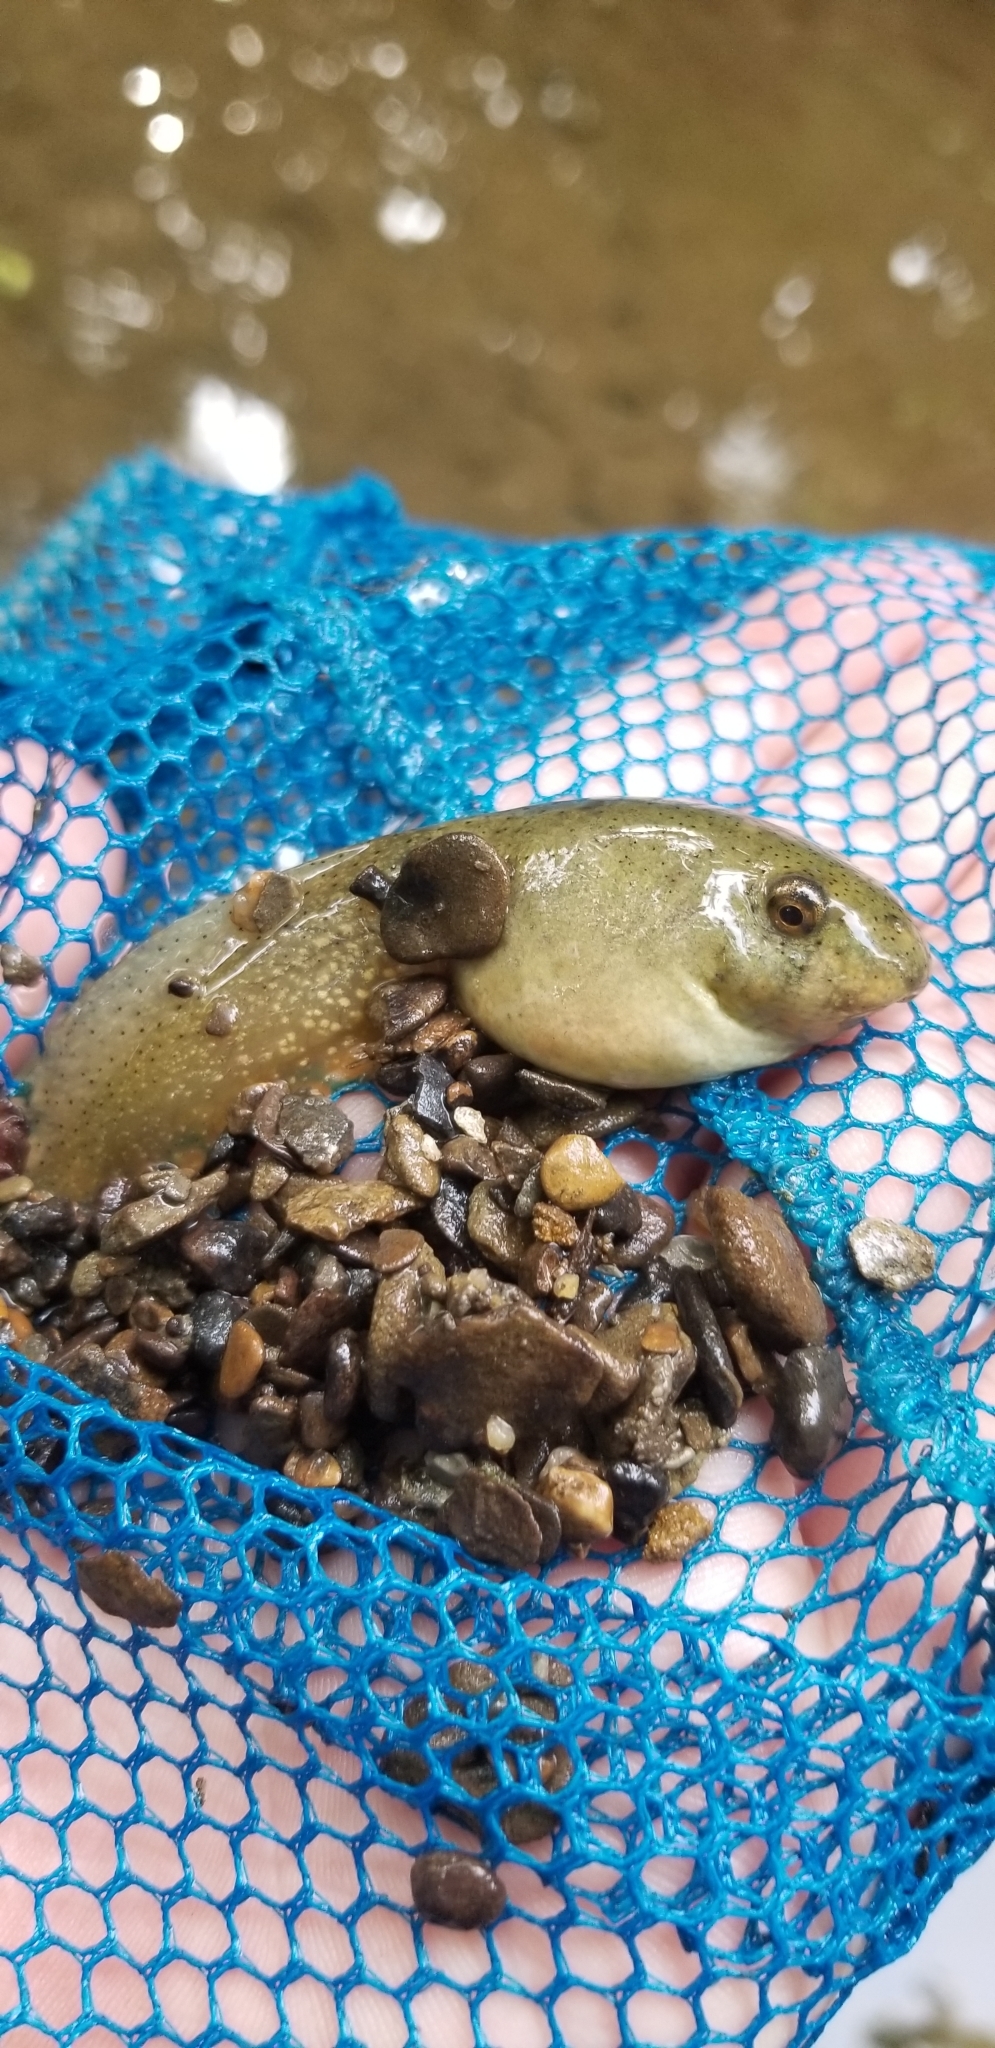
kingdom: Animalia
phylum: Chordata
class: Amphibia
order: Anura
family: Ranidae
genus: Lithobates
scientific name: Lithobates catesbeianus
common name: American bullfrog
